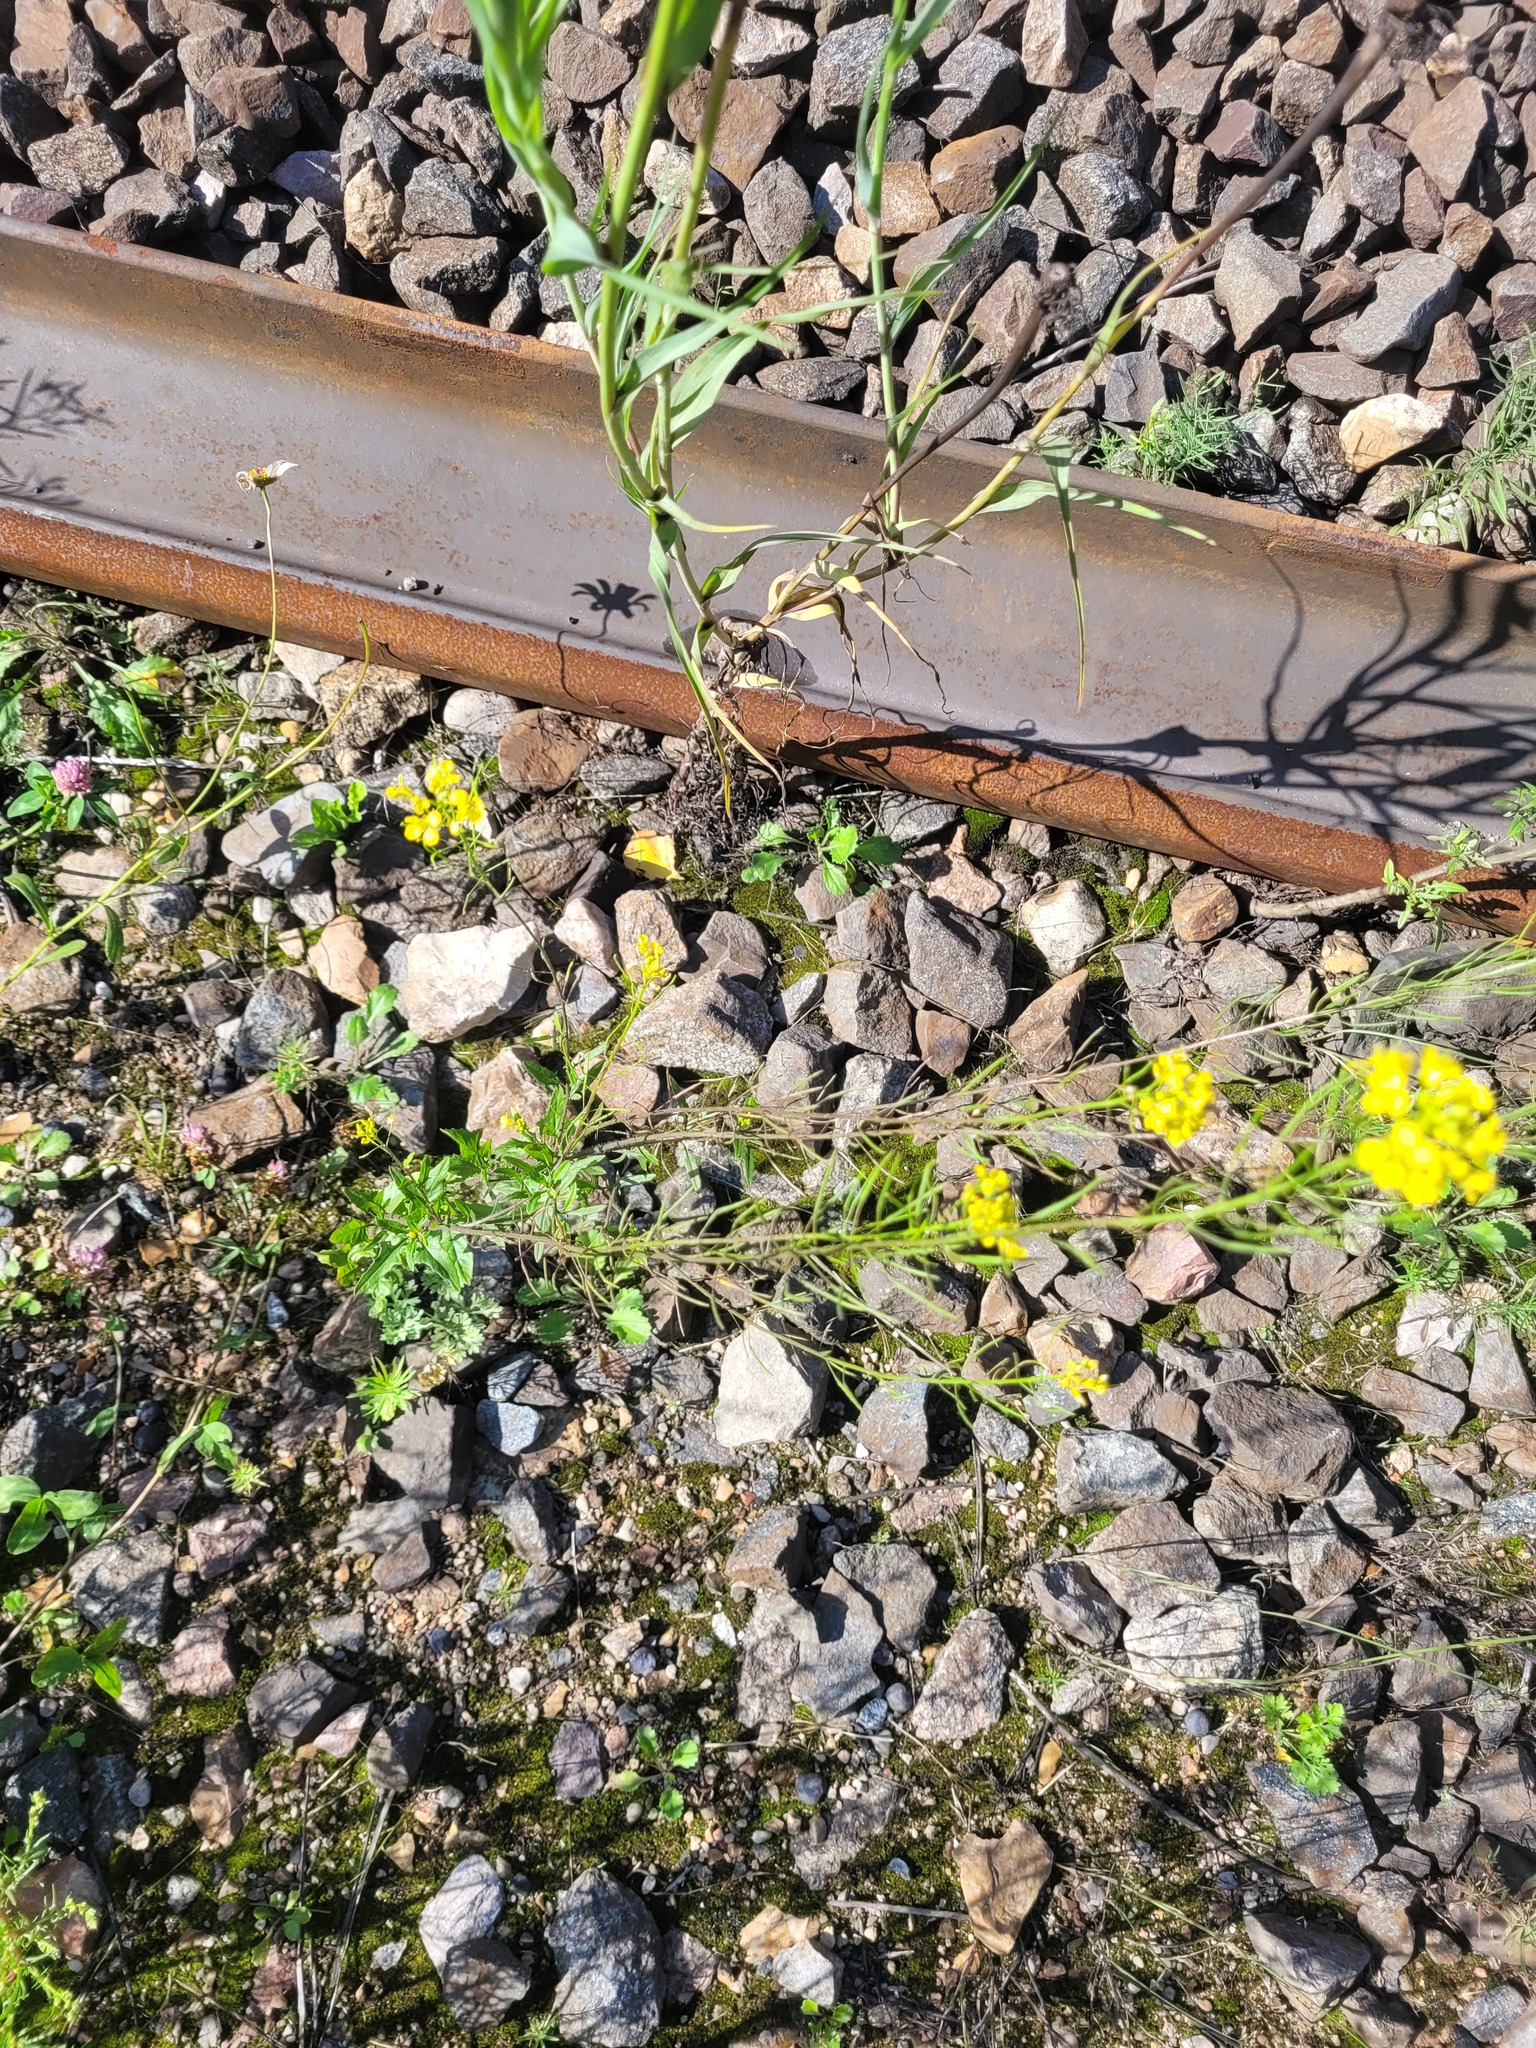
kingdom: Plantae
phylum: Tracheophyta
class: Magnoliopsida
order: Brassicales
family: Brassicaceae
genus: Sisymbrium
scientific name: Sisymbrium loeselii
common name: False london-rocket
